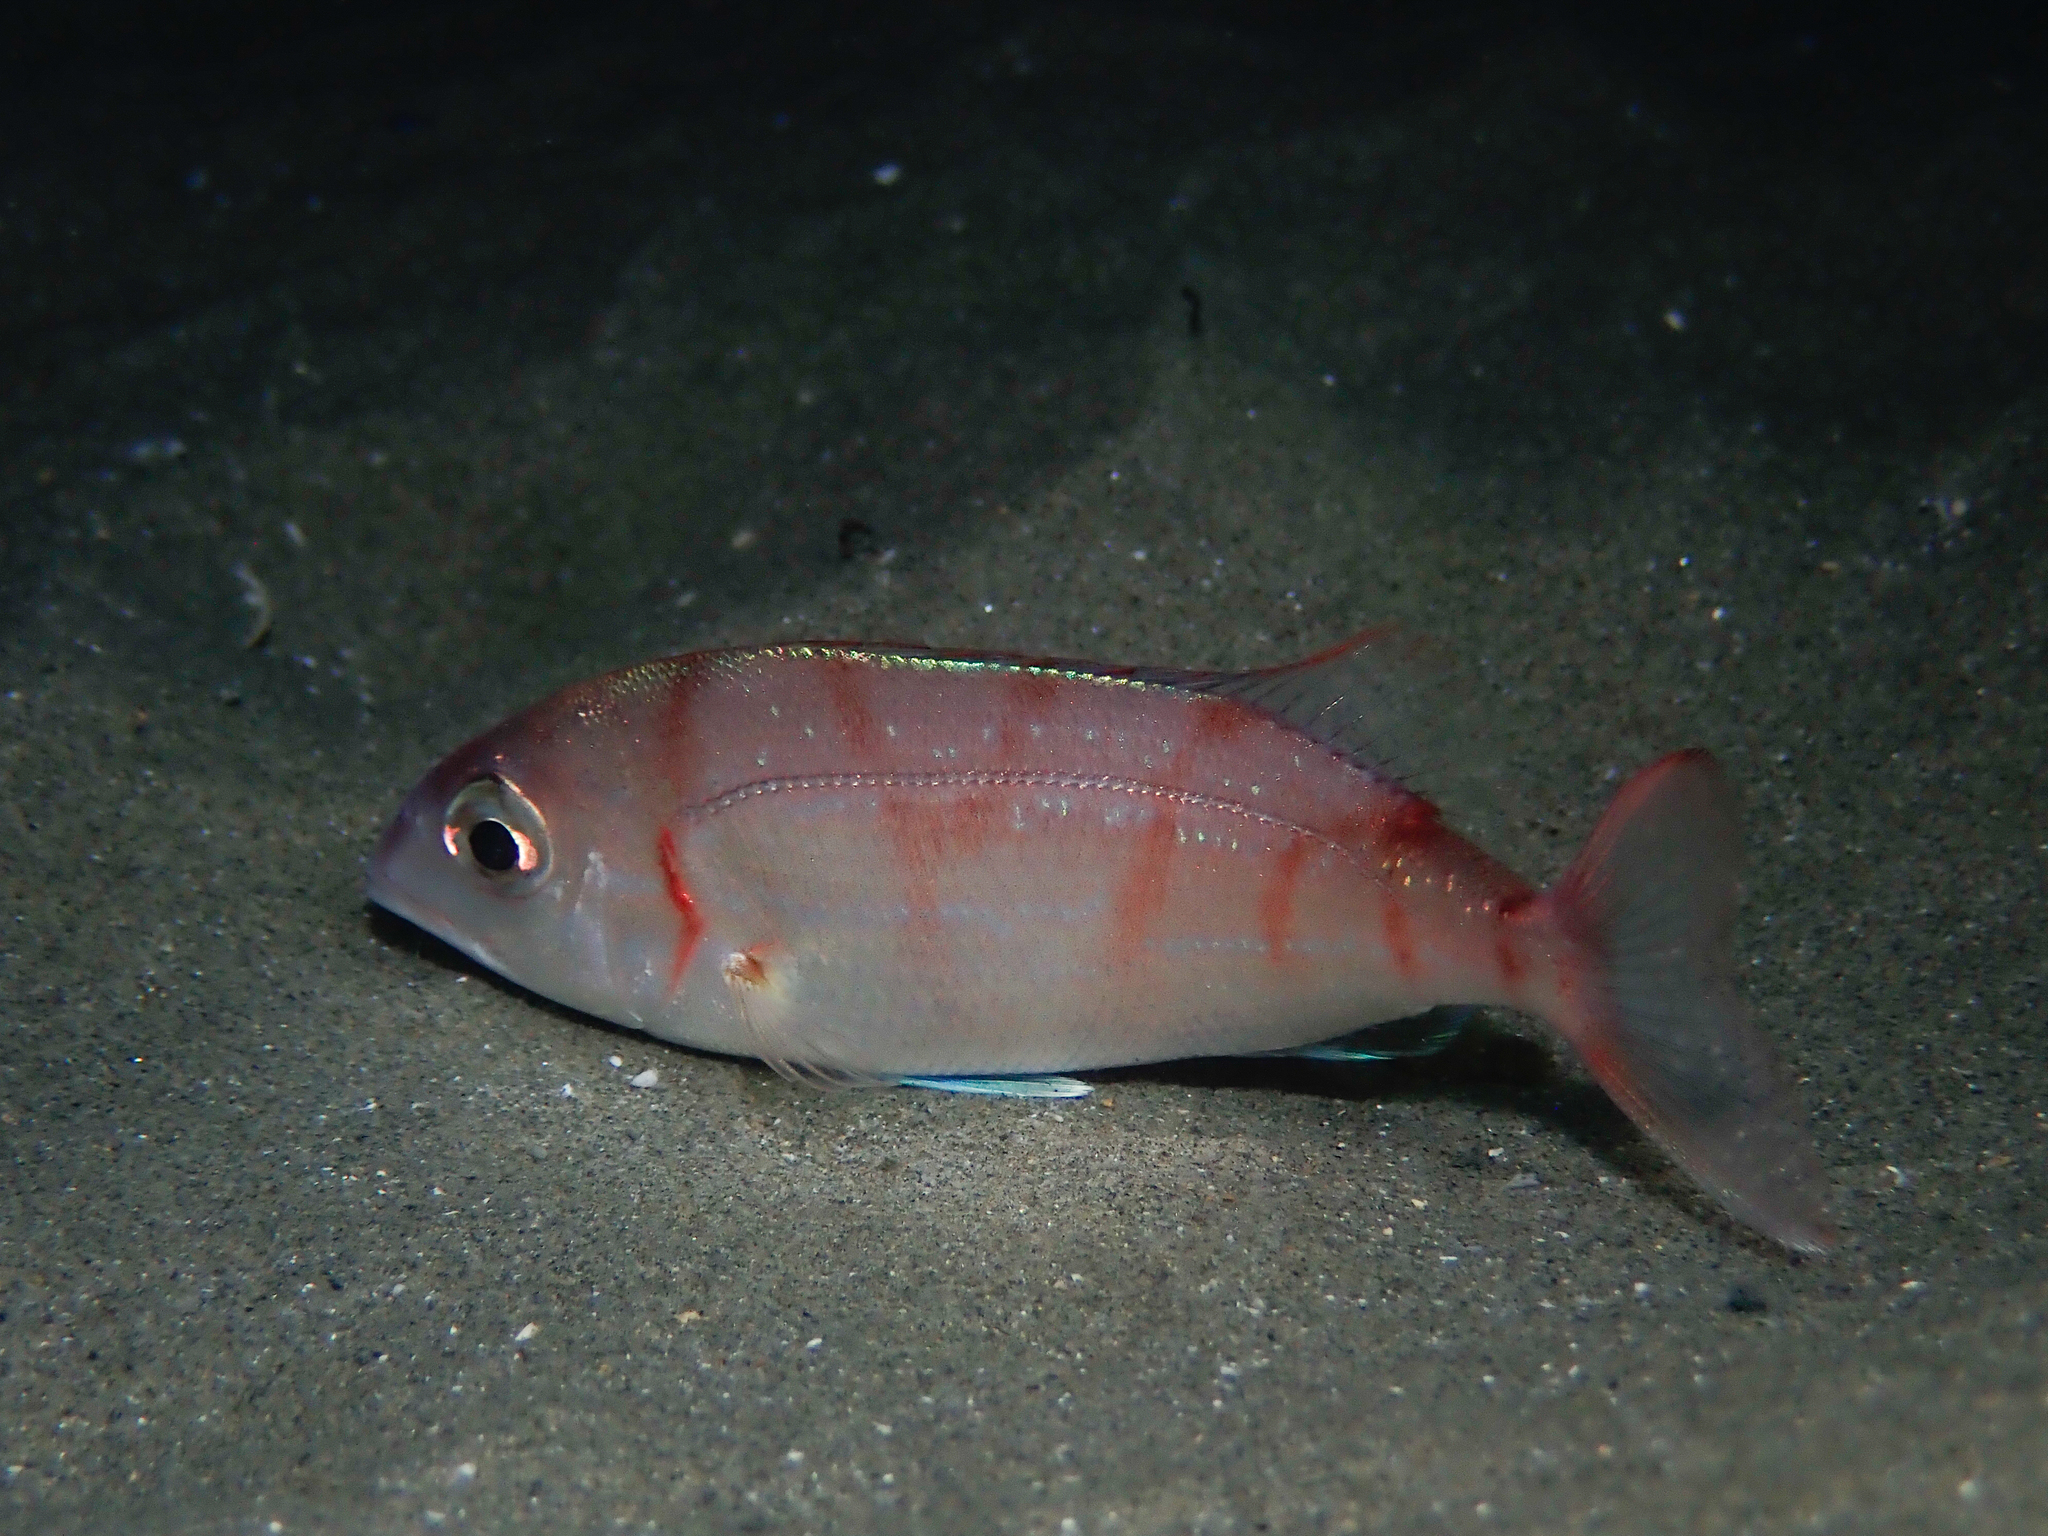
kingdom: Animalia
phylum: Chordata
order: Perciformes
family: Sparidae
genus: Pagellus
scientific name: Pagellus erythrinus
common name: Pandora
